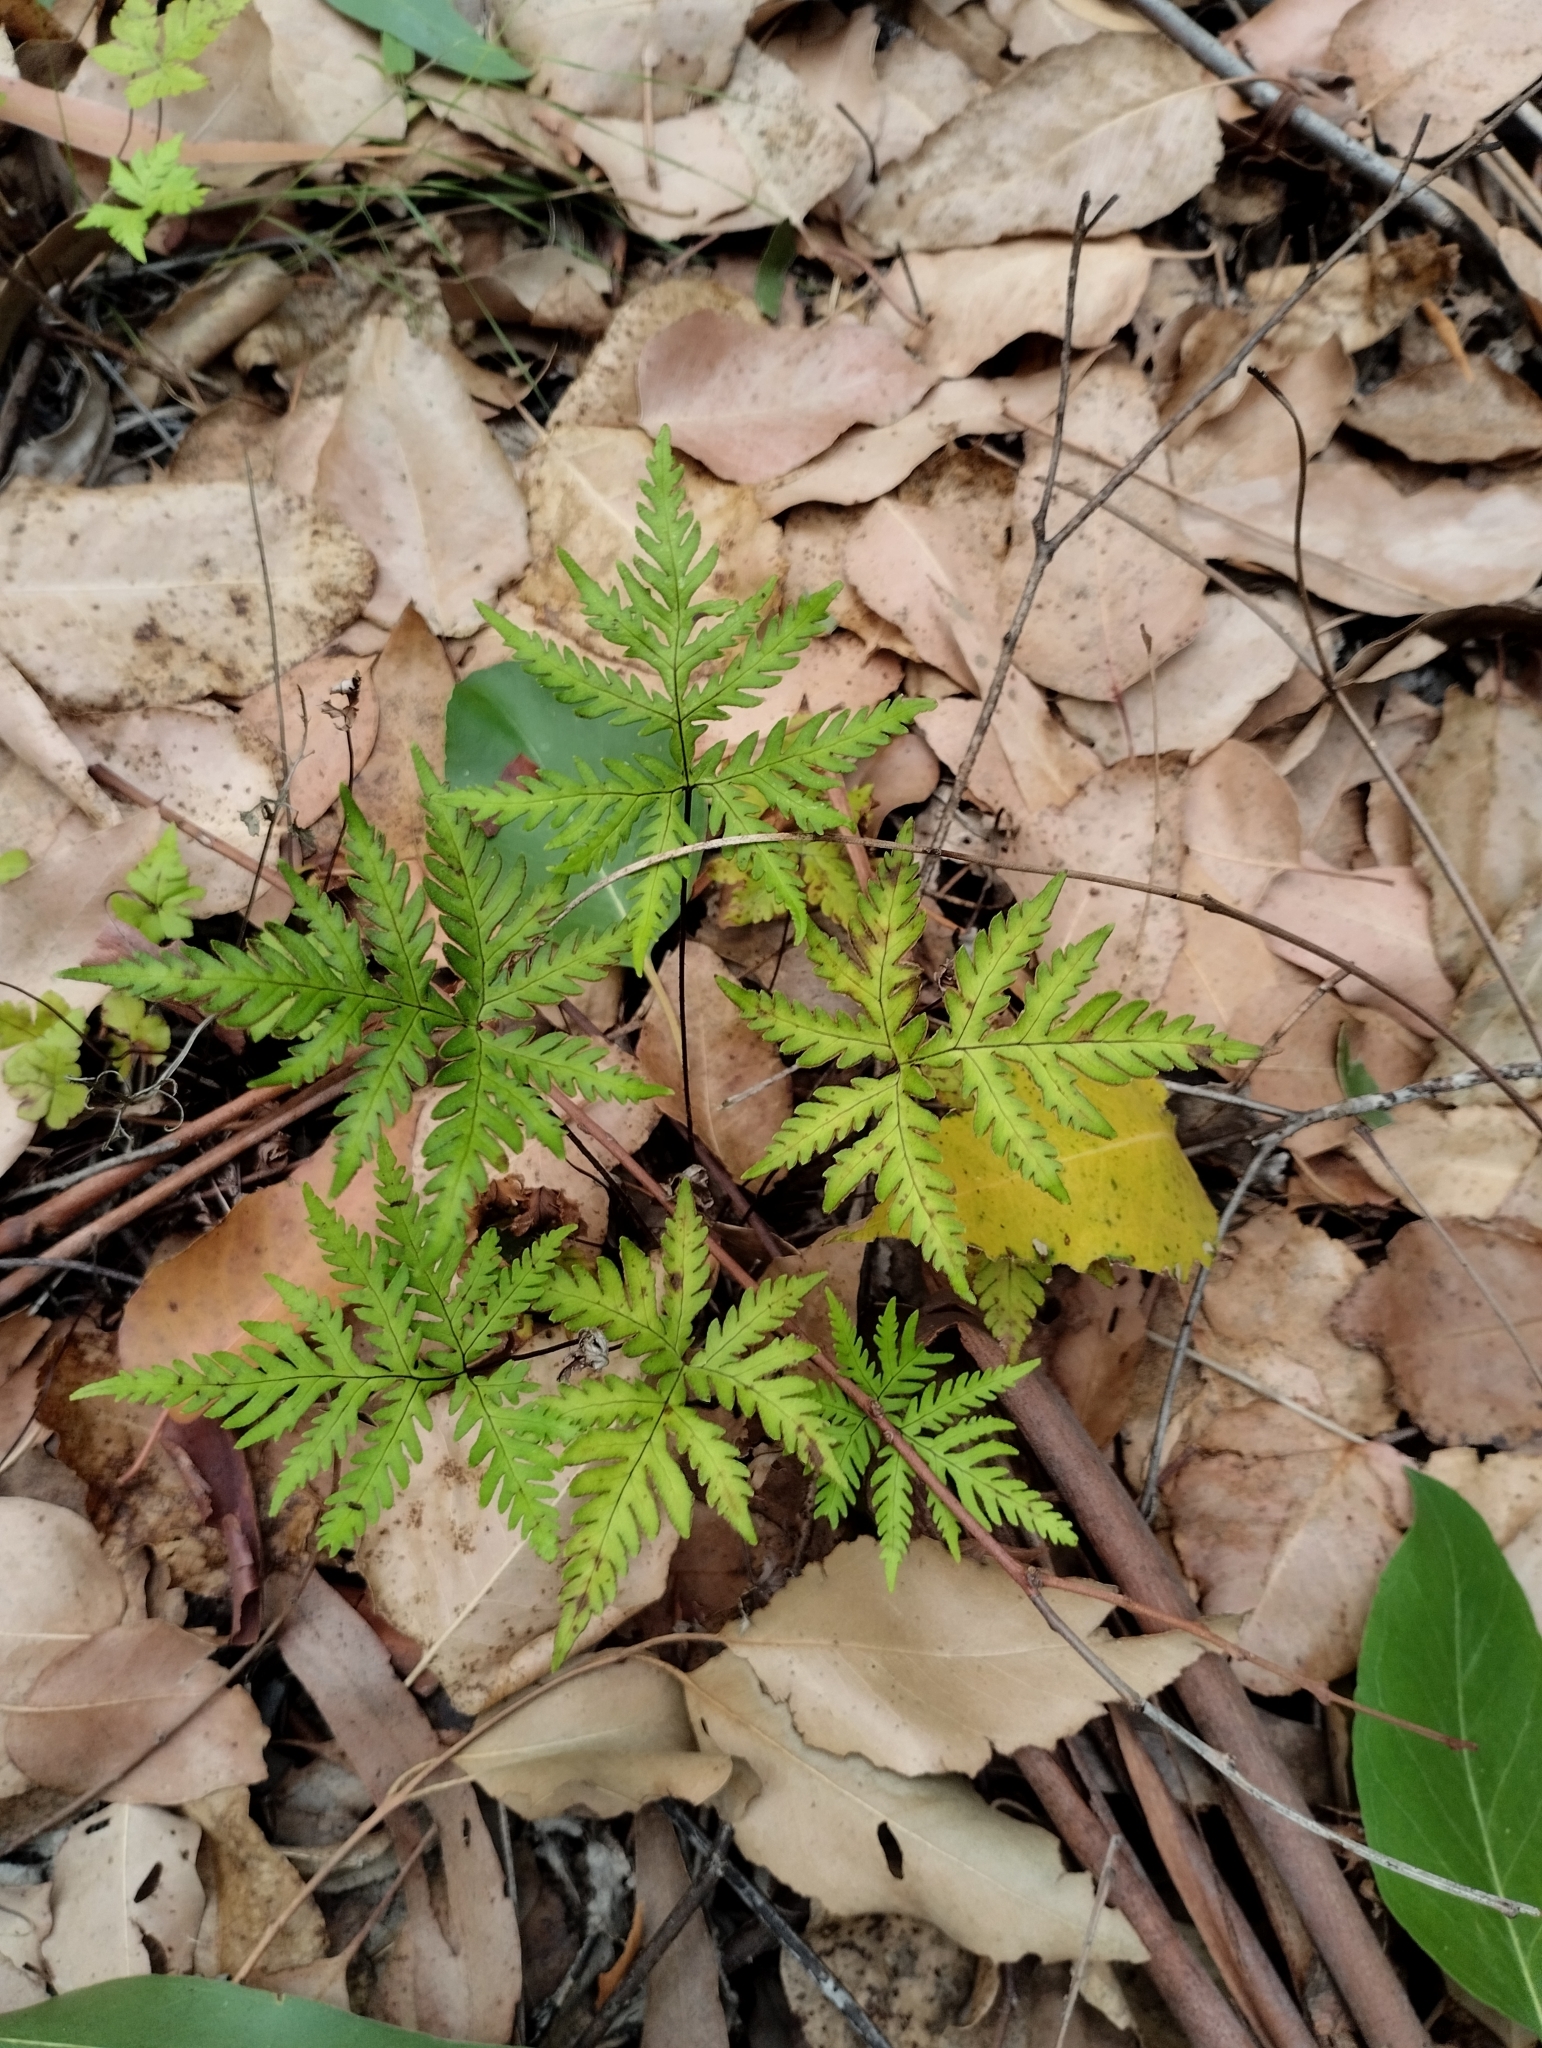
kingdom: Plantae
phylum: Tracheophyta
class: Polypodiopsida
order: Polypodiales
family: Pteridaceae
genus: Doryopteris
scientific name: Doryopteris concolor
